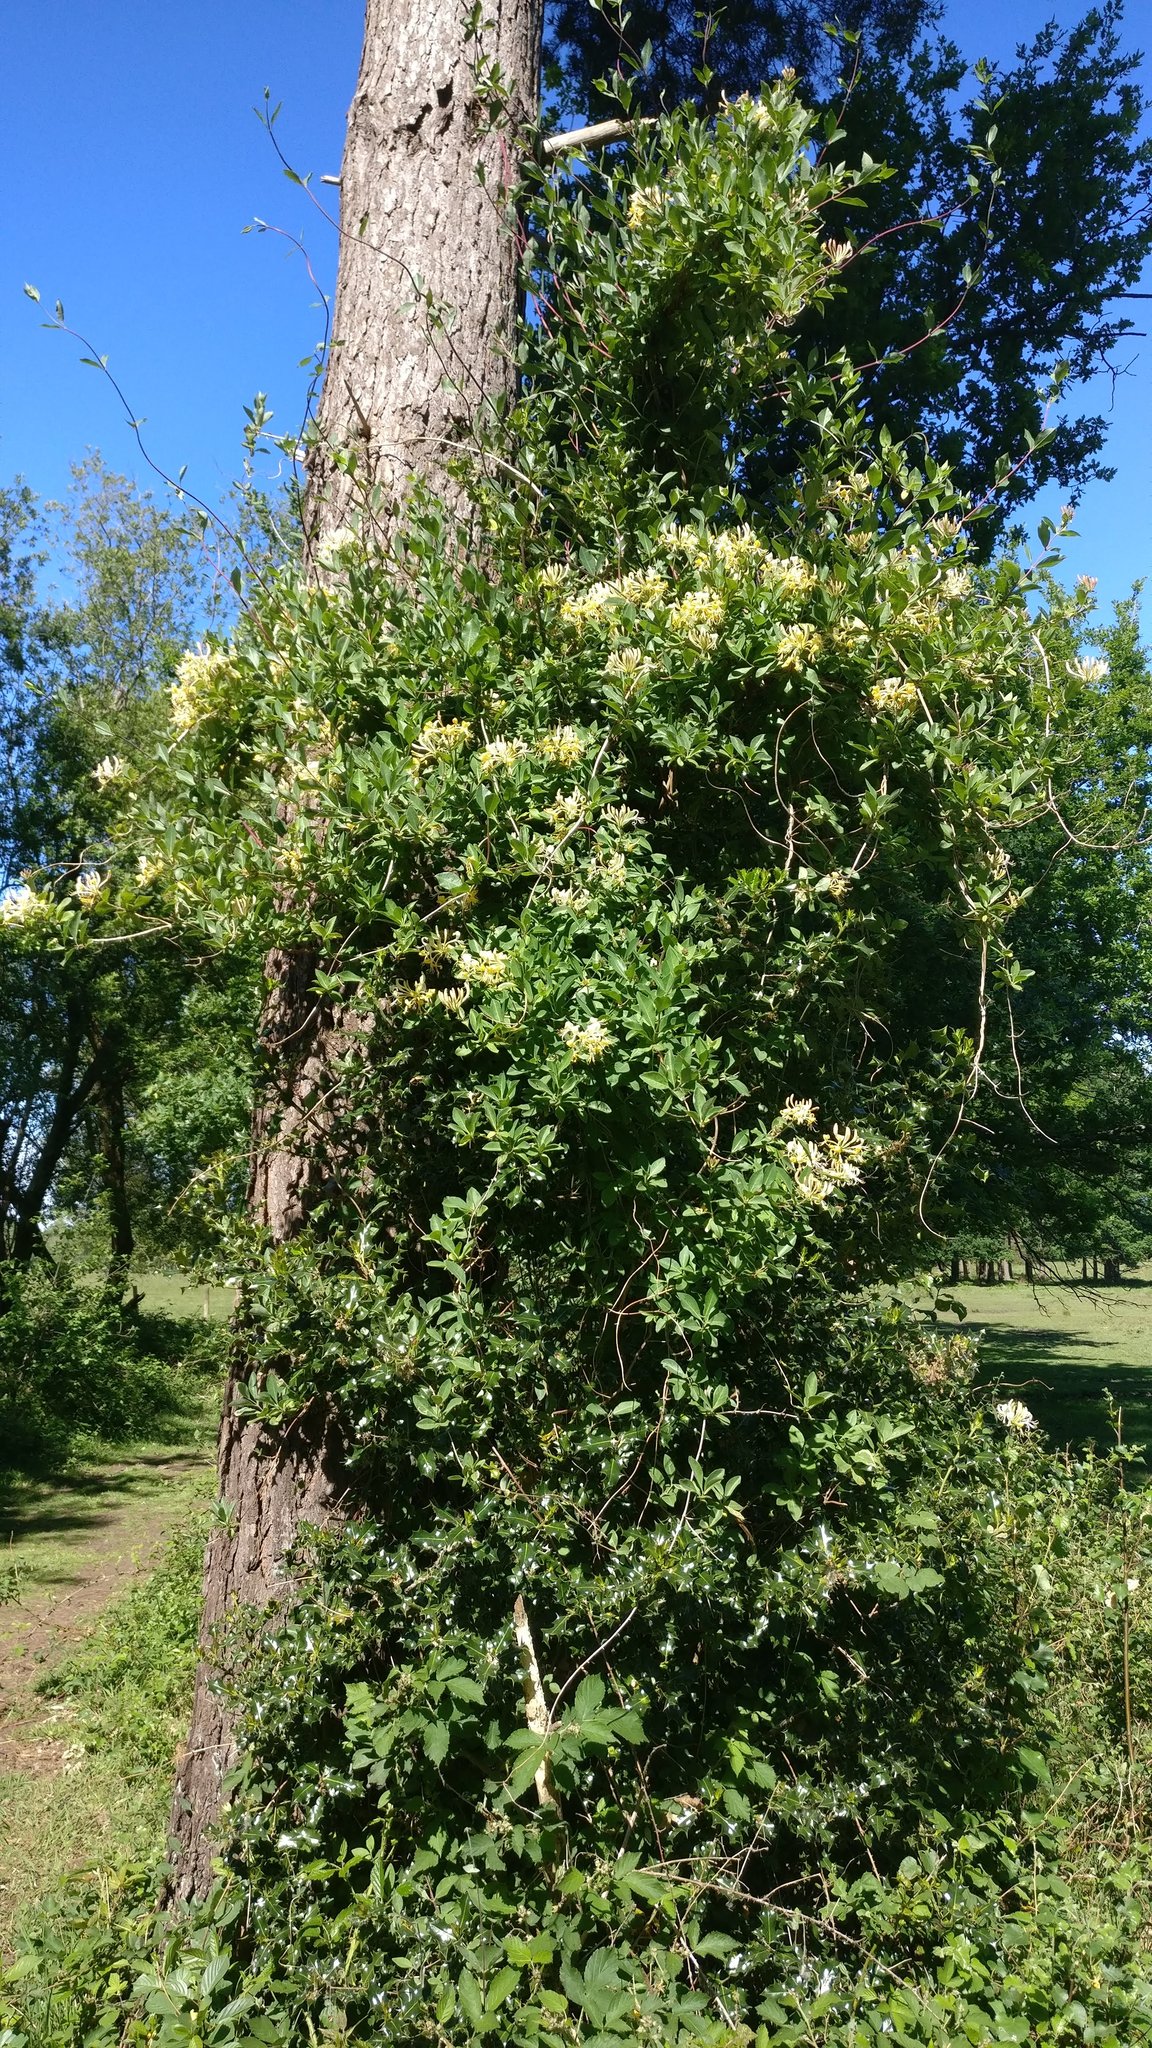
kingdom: Plantae
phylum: Tracheophyta
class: Magnoliopsida
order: Dipsacales
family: Caprifoliaceae
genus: Lonicera
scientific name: Lonicera periclymenum
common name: European honeysuckle
